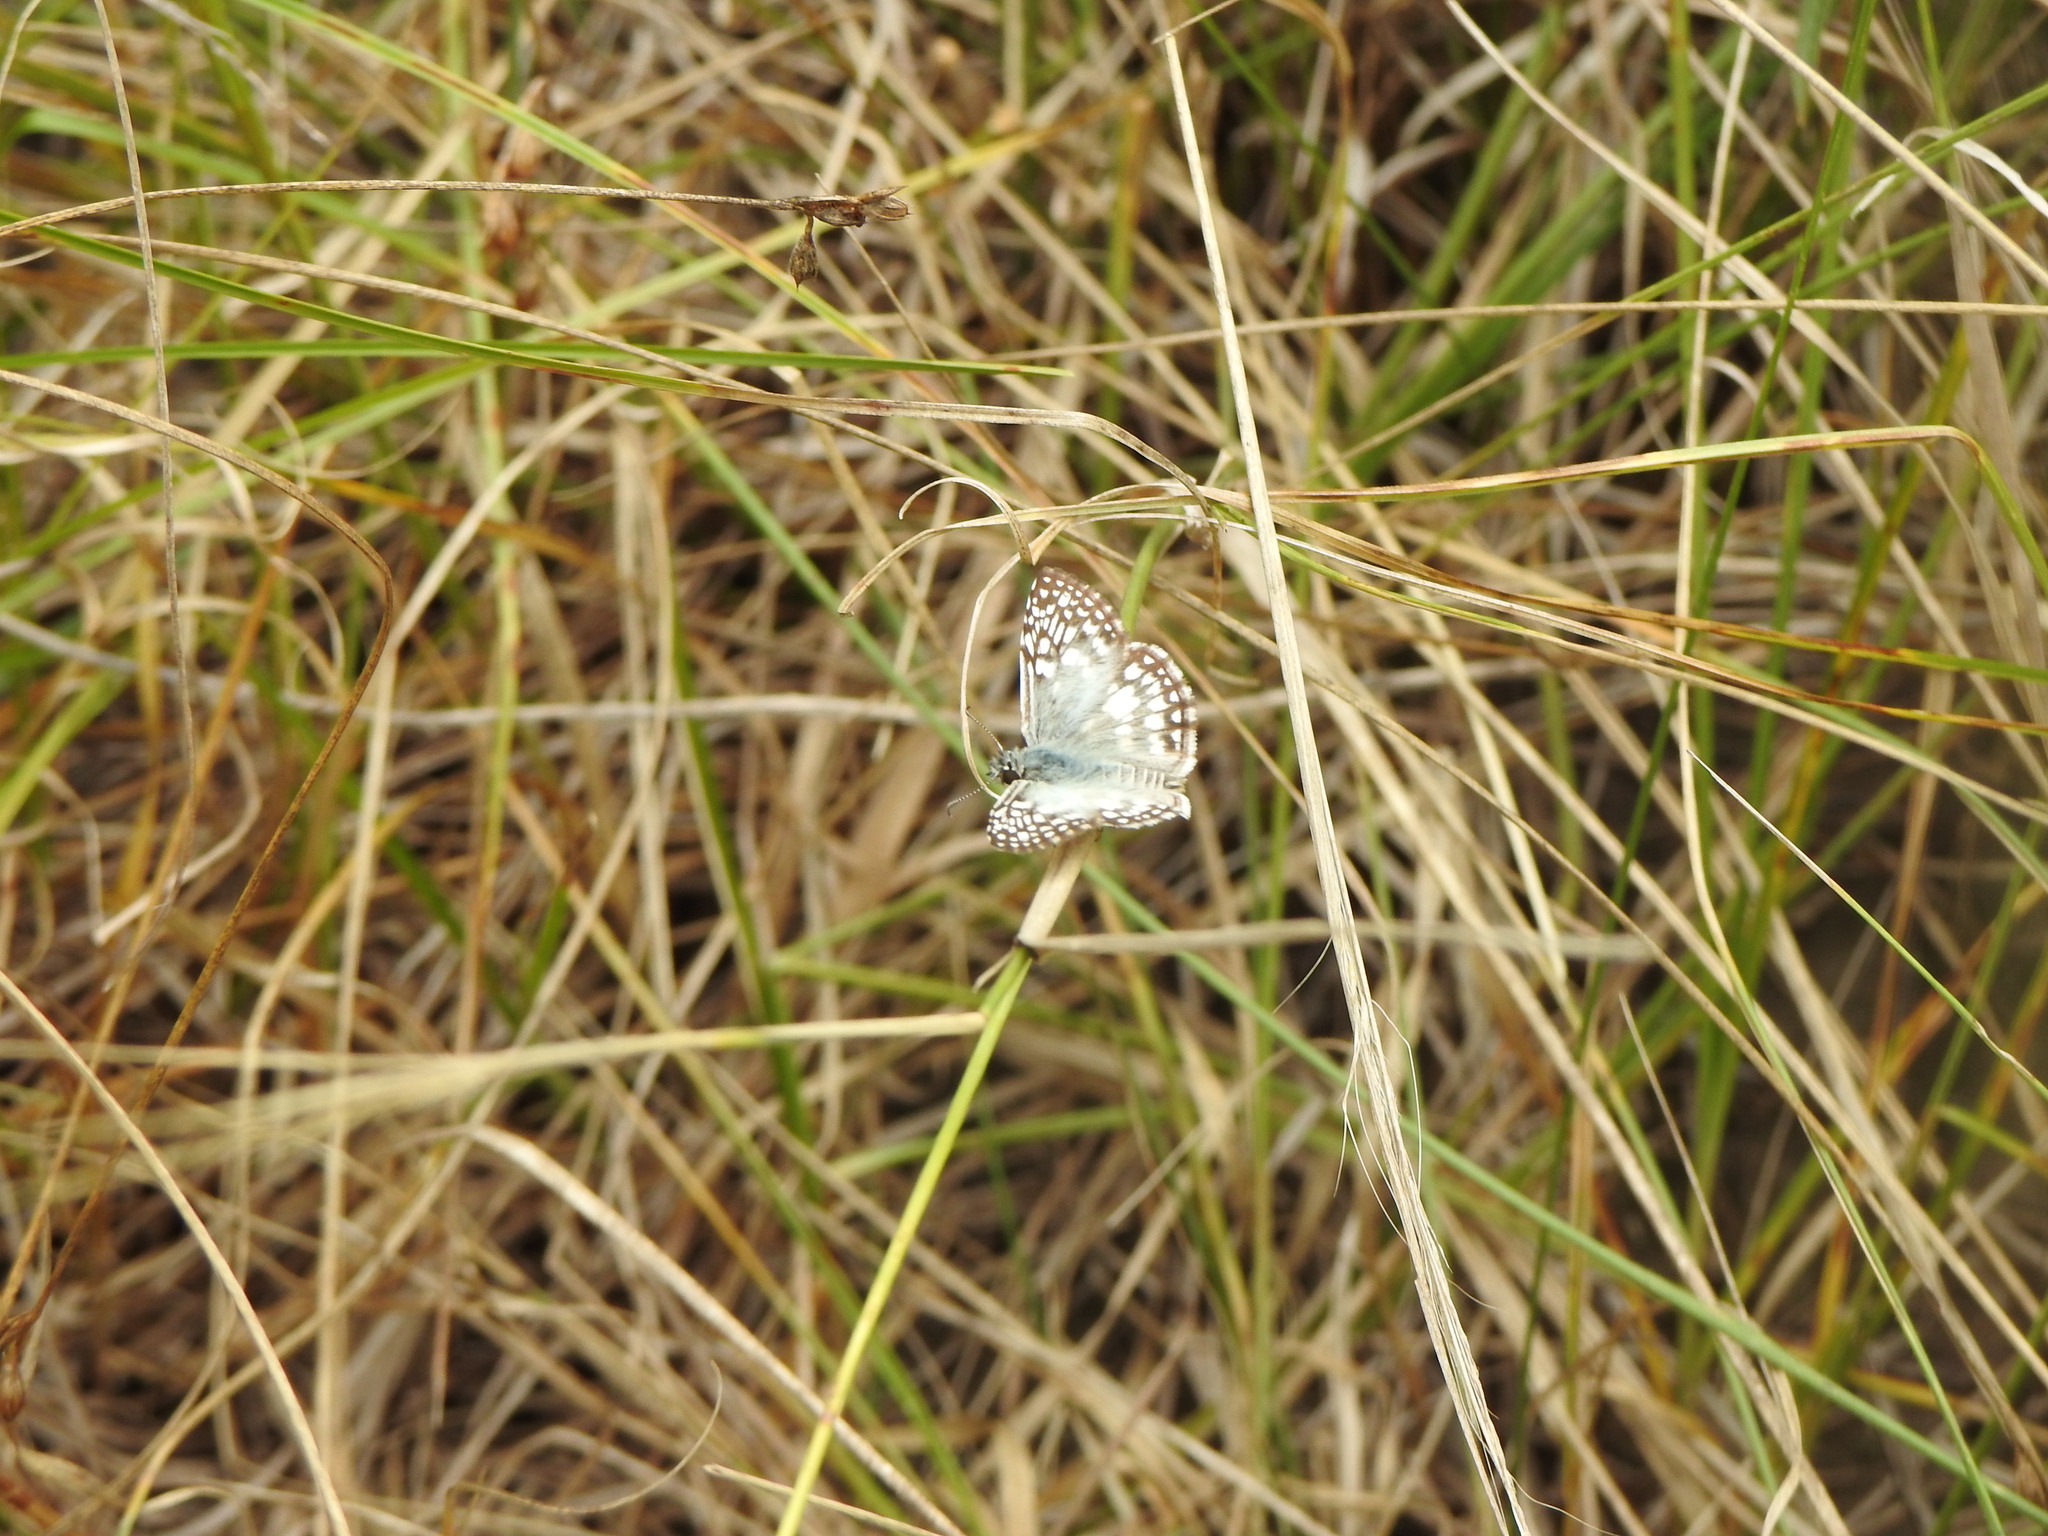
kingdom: Animalia
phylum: Arthropoda
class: Insecta
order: Lepidoptera
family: Hesperiidae
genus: Pyrgus
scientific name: Pyrgus oileus
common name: Tropical checkered-skipper
